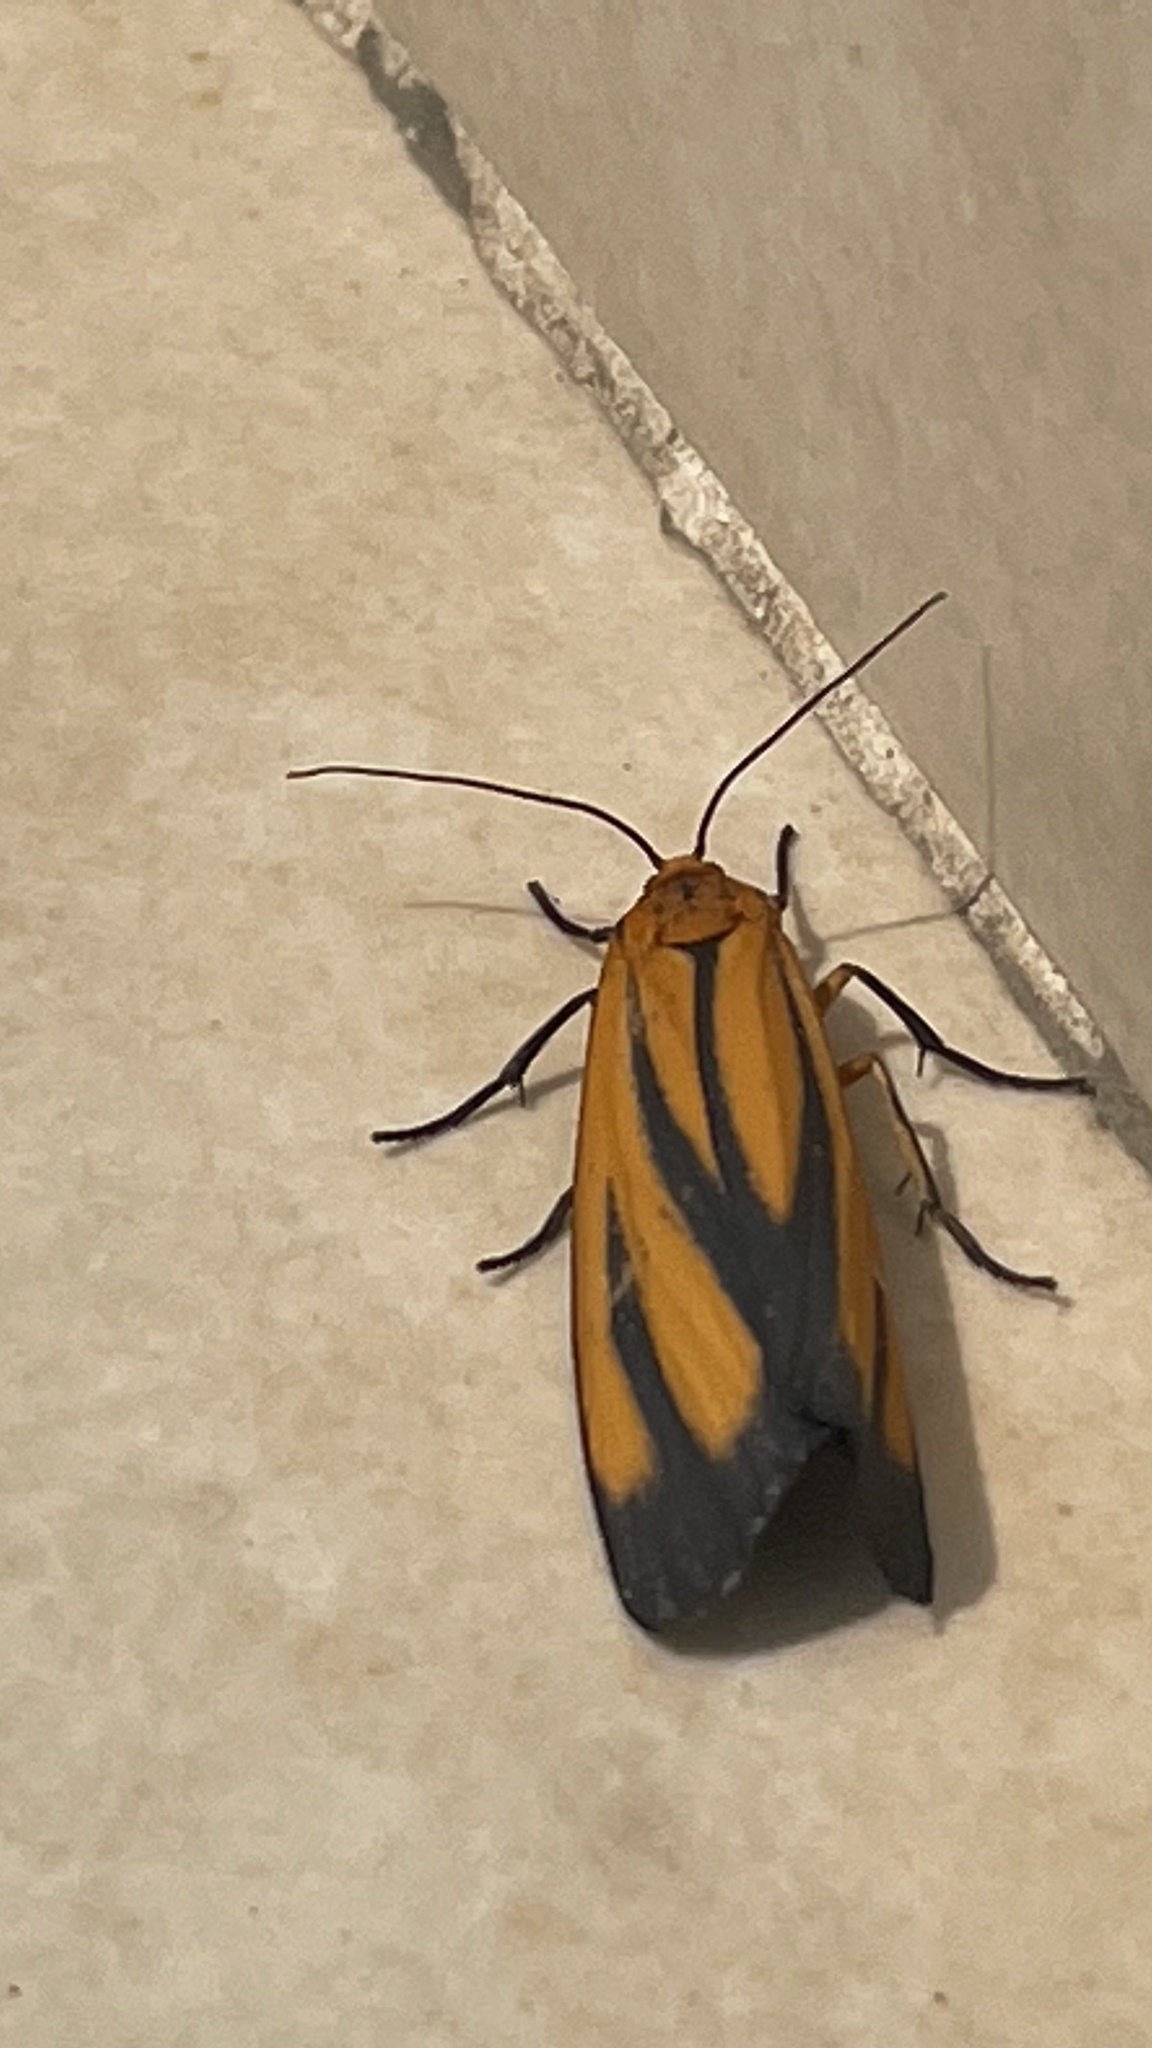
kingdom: Animalia
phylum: Arthropoda
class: Insecta
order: Lepidoptera
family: Erebidae
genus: Eurylomia
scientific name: Eurylomia cordula
